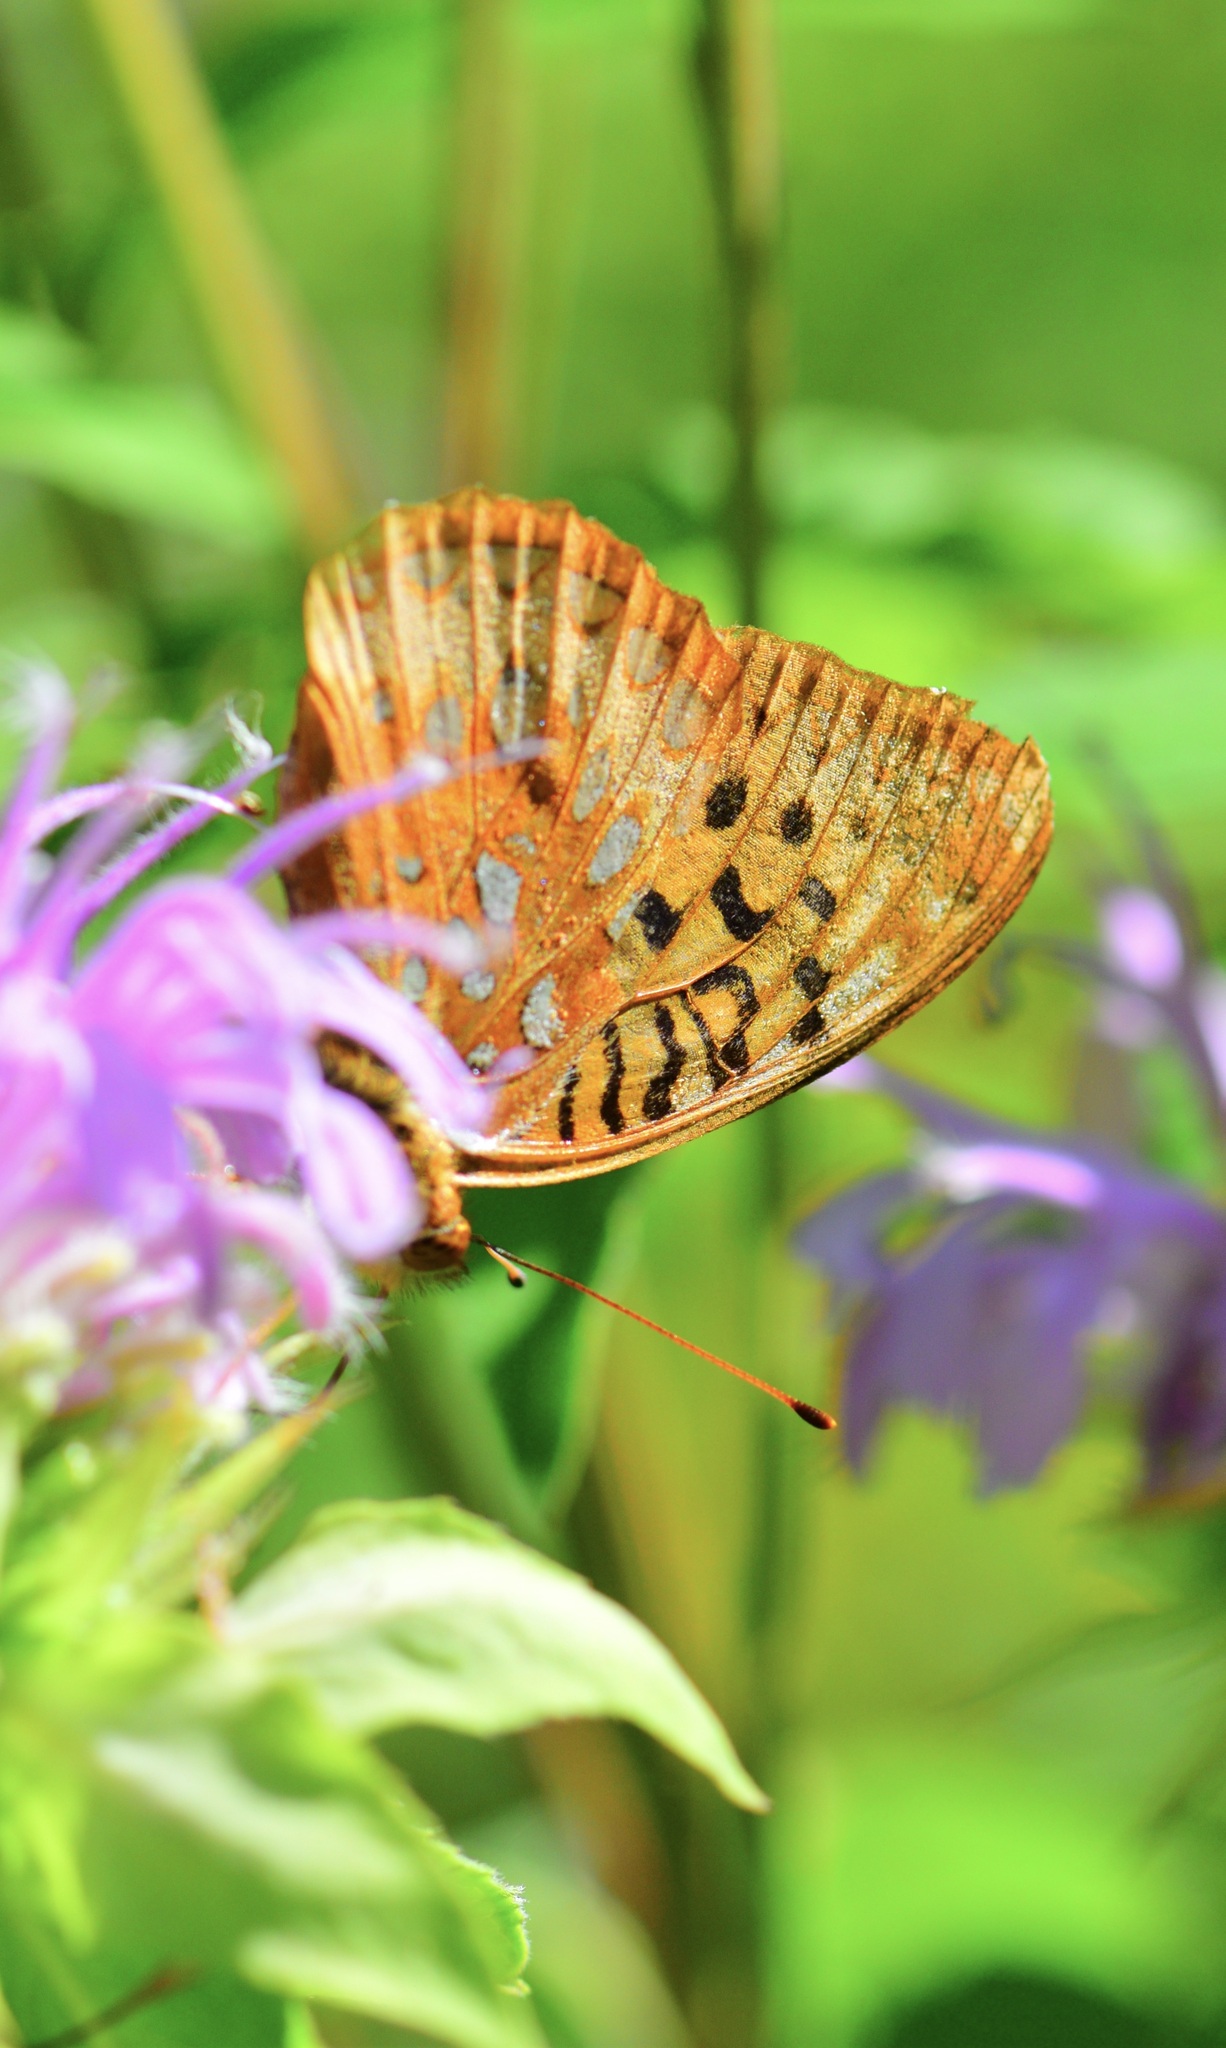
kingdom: Animalia
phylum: Arthropoda
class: Insecta
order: Lepidoptera
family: Nymphalidae
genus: Speyeria
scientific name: Speyeria cybele
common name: Great spangled fritillary
